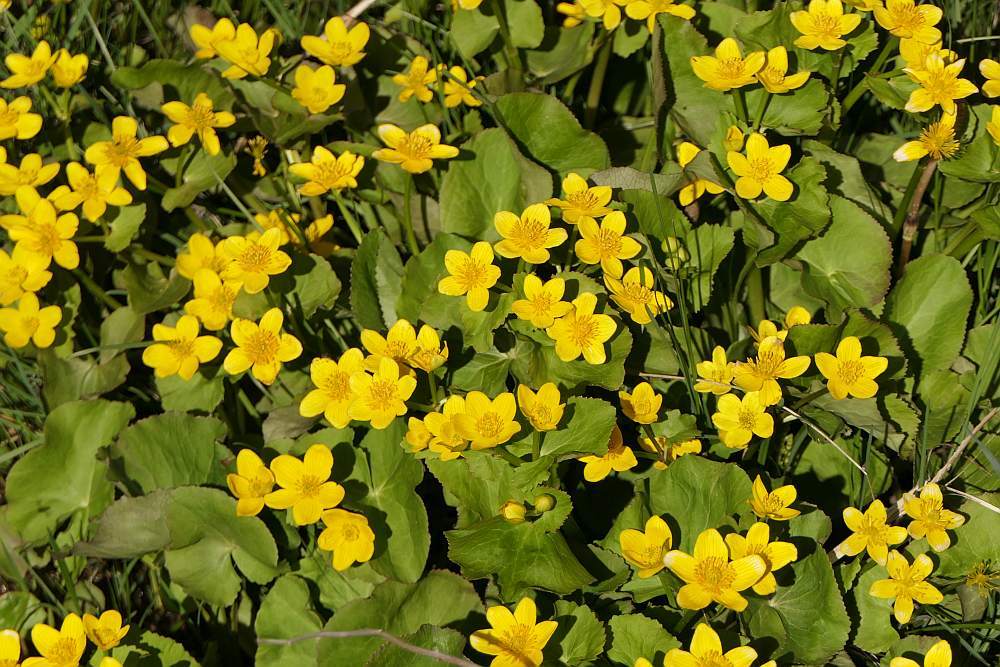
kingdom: Plantae
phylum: Tracheophyta
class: Magnoliopsida
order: Ranunculales
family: Ranunculaceae
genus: Caltha
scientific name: Caltha palustris
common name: Marsh marigold
